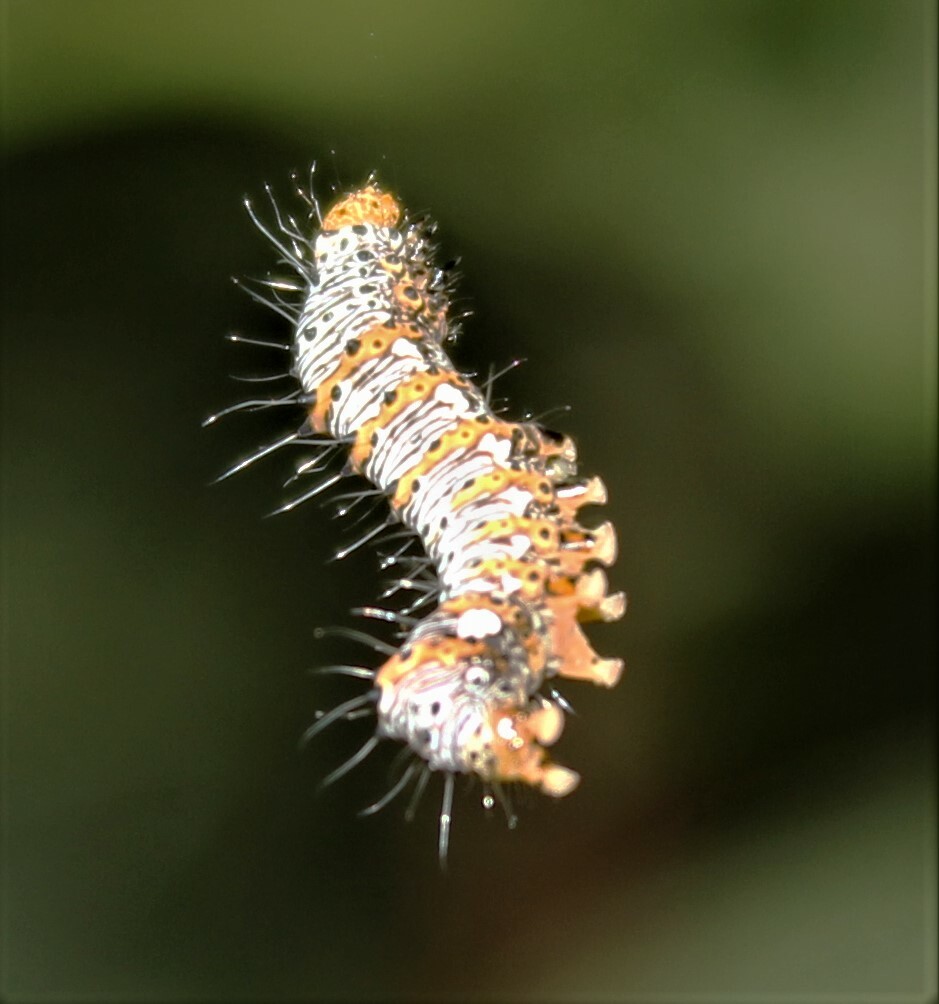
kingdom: Animalia
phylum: Arthropoda
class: Insecta
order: Lepidoptera
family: Noctuidae
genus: Alypia
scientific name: Alypia octomaculata
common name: Eight-spotted forester
